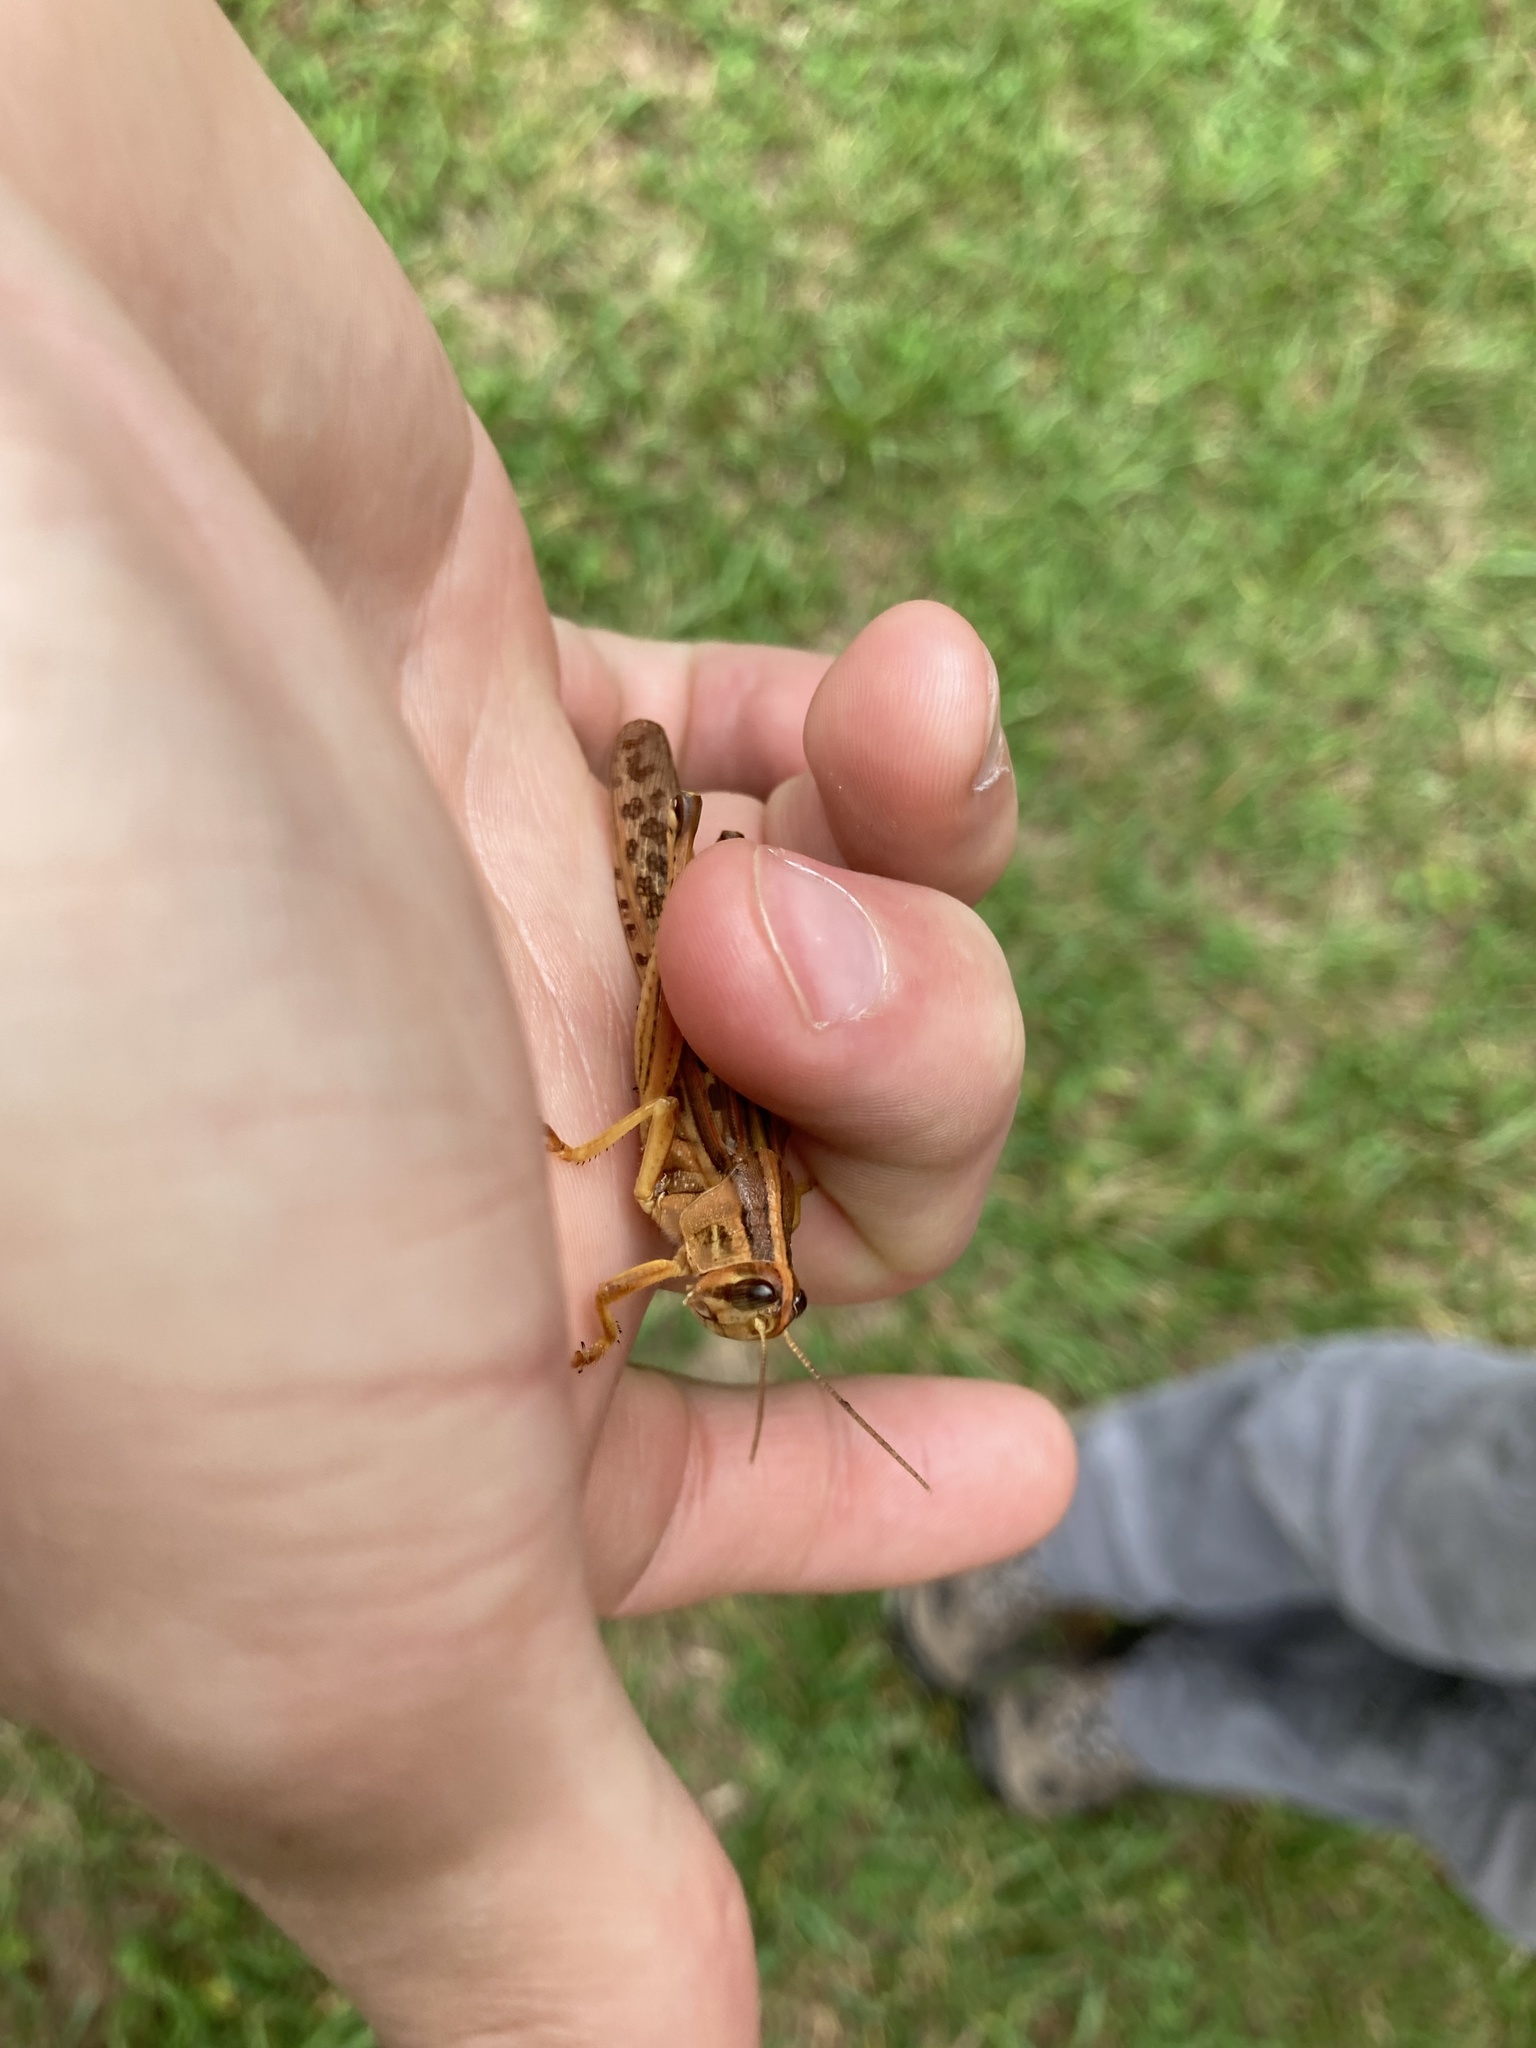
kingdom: Animalia
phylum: Arthropoda
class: Insecta
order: Orthoptera
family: Acrididae
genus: Schistocerca
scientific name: Schistocerca americana
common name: American bird locust
